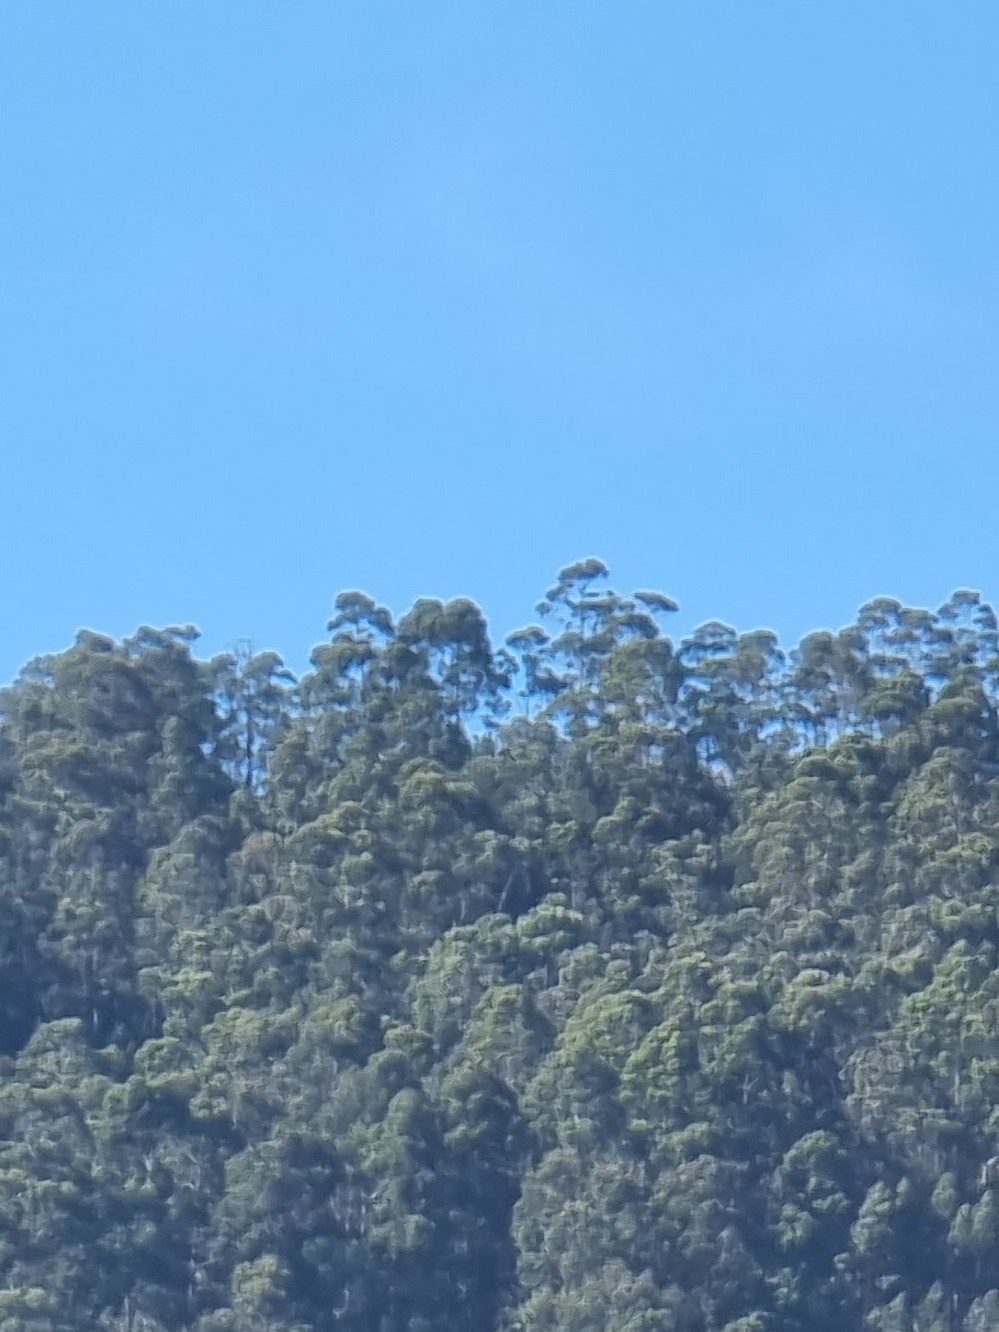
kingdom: Plantae
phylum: Tracheophyta
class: Magnoliopsida
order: Myrtales
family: Myrtaceae
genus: Eucalyptus
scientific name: Eucalyptus globulus
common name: Southern blue-gum
